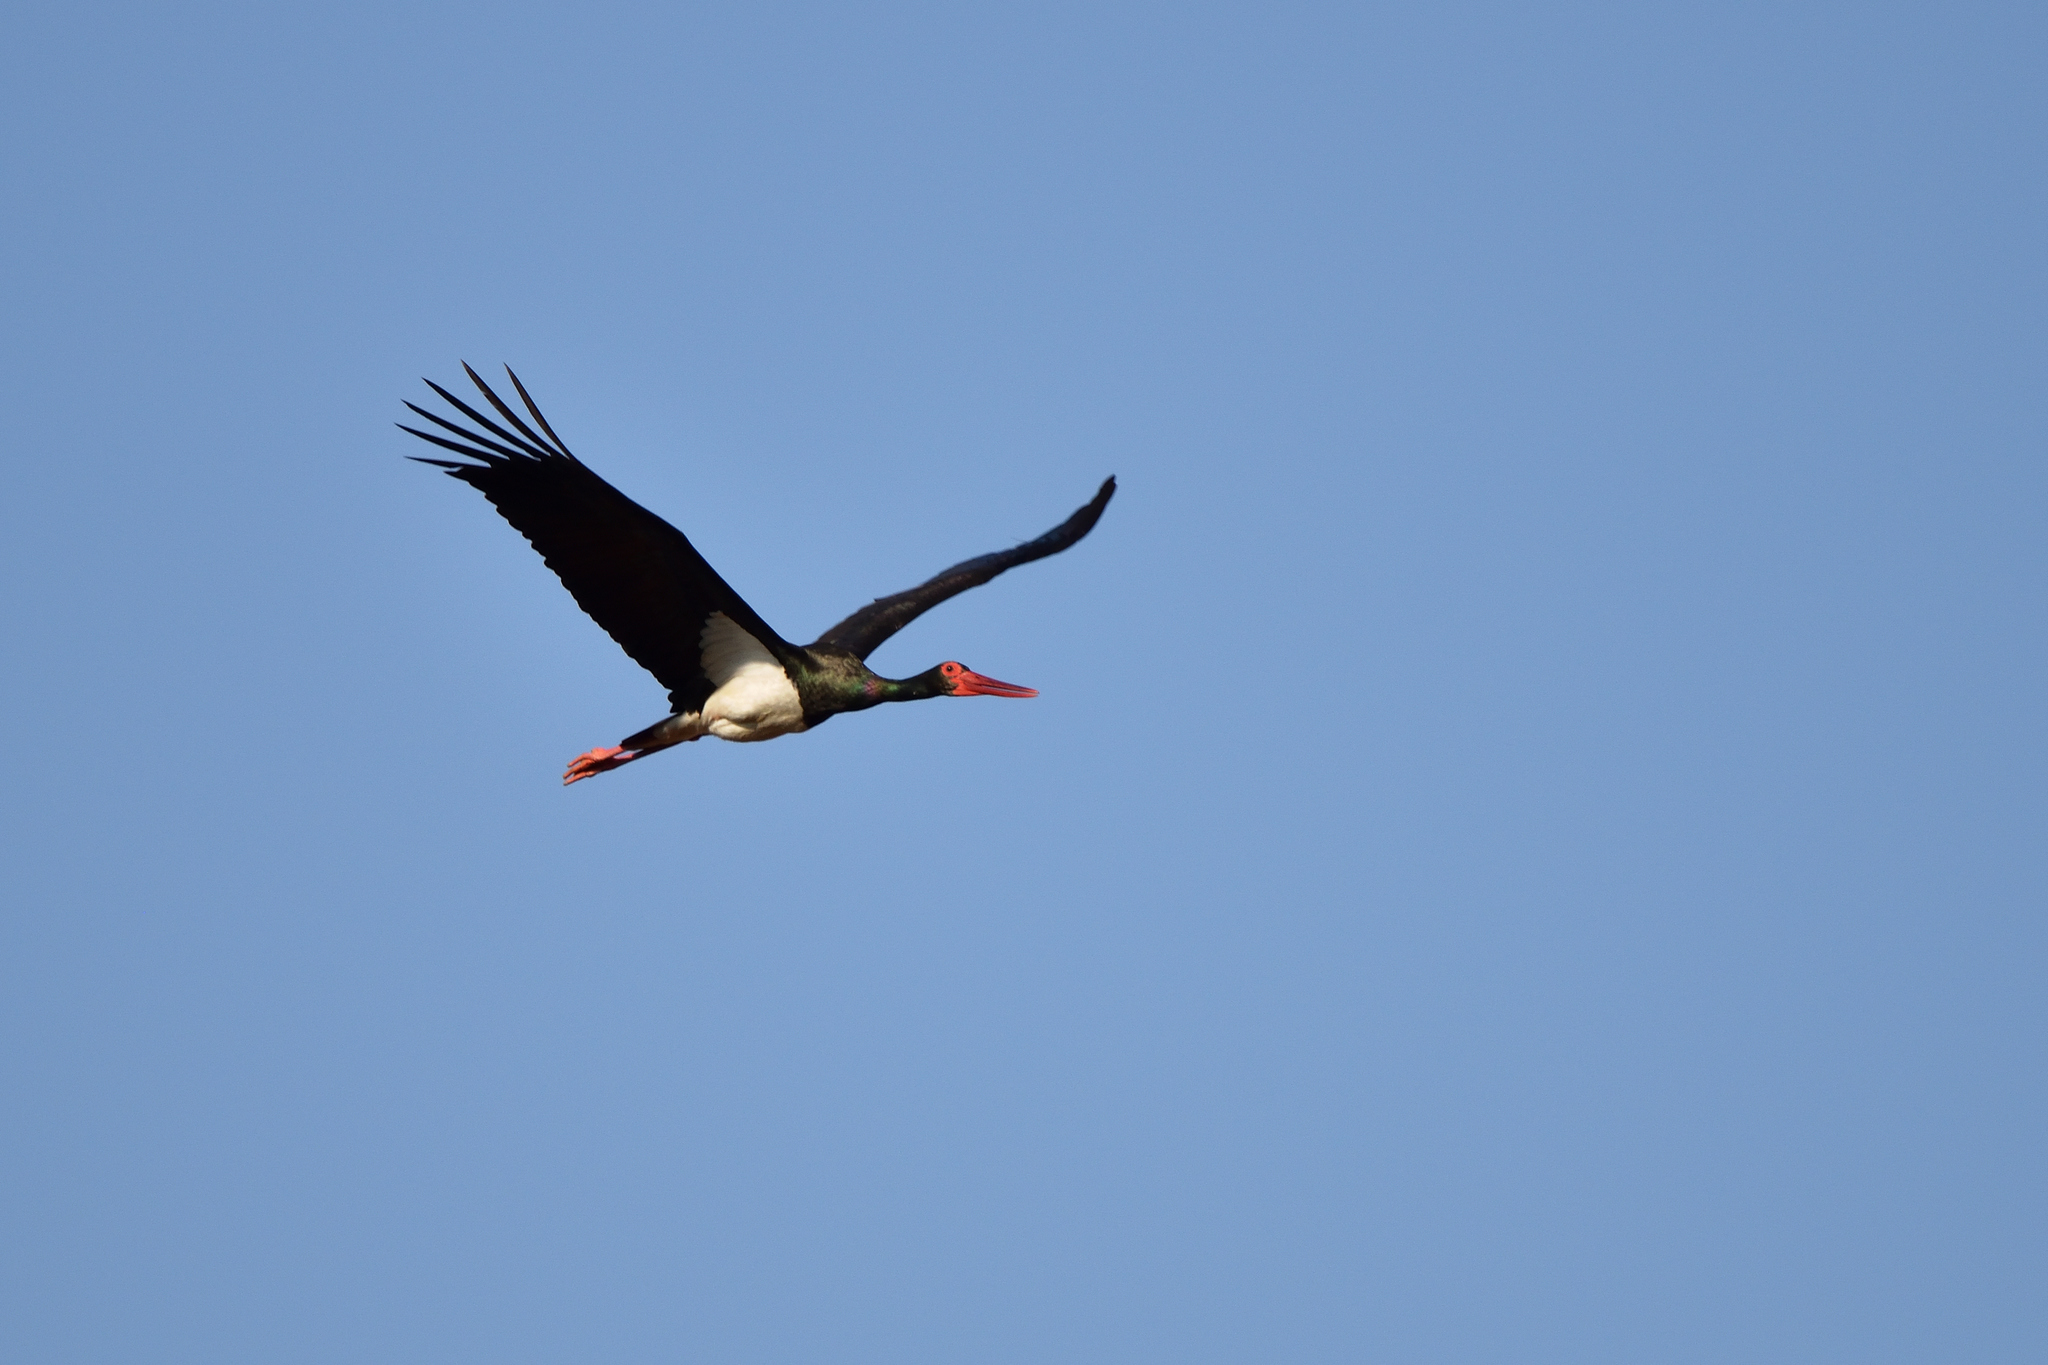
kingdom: Animalia
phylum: Chordata
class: Aves
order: Ciconiiformes
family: Ciconiidae
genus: Ciconia
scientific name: Ciconia nigra
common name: Black stork
